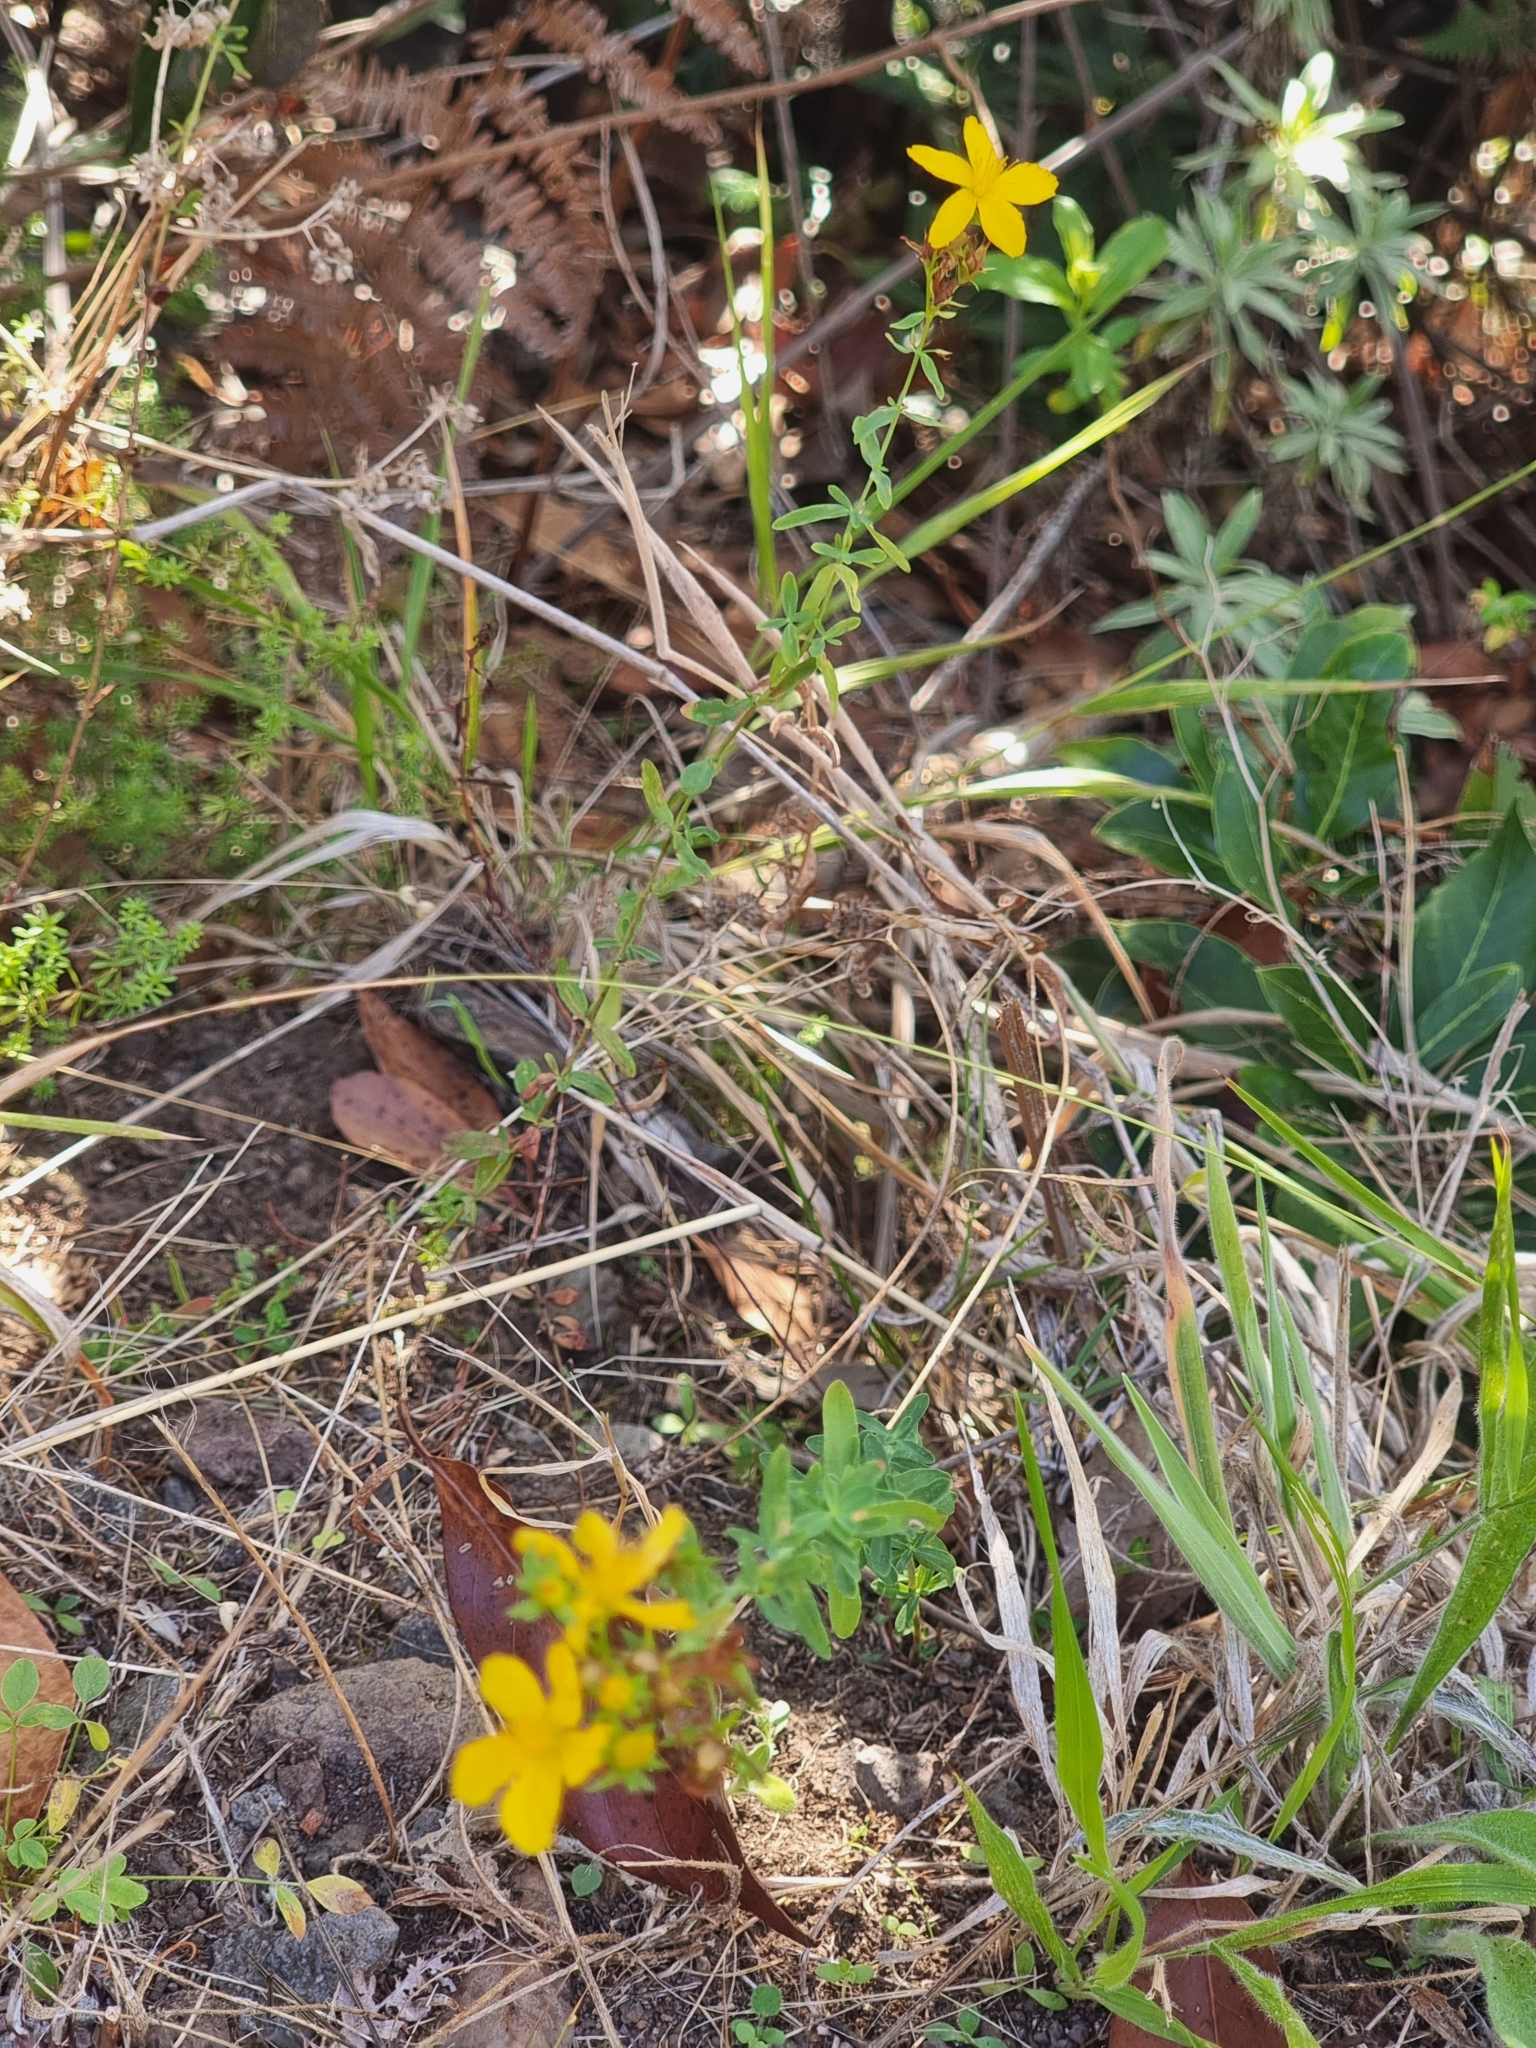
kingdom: Plantae
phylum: Tracheophyta
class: Magnoliopsida
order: Malpighiales
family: Hypericaceae
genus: Hypericum
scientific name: Hypericum perforatum
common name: Common st. johnswort
